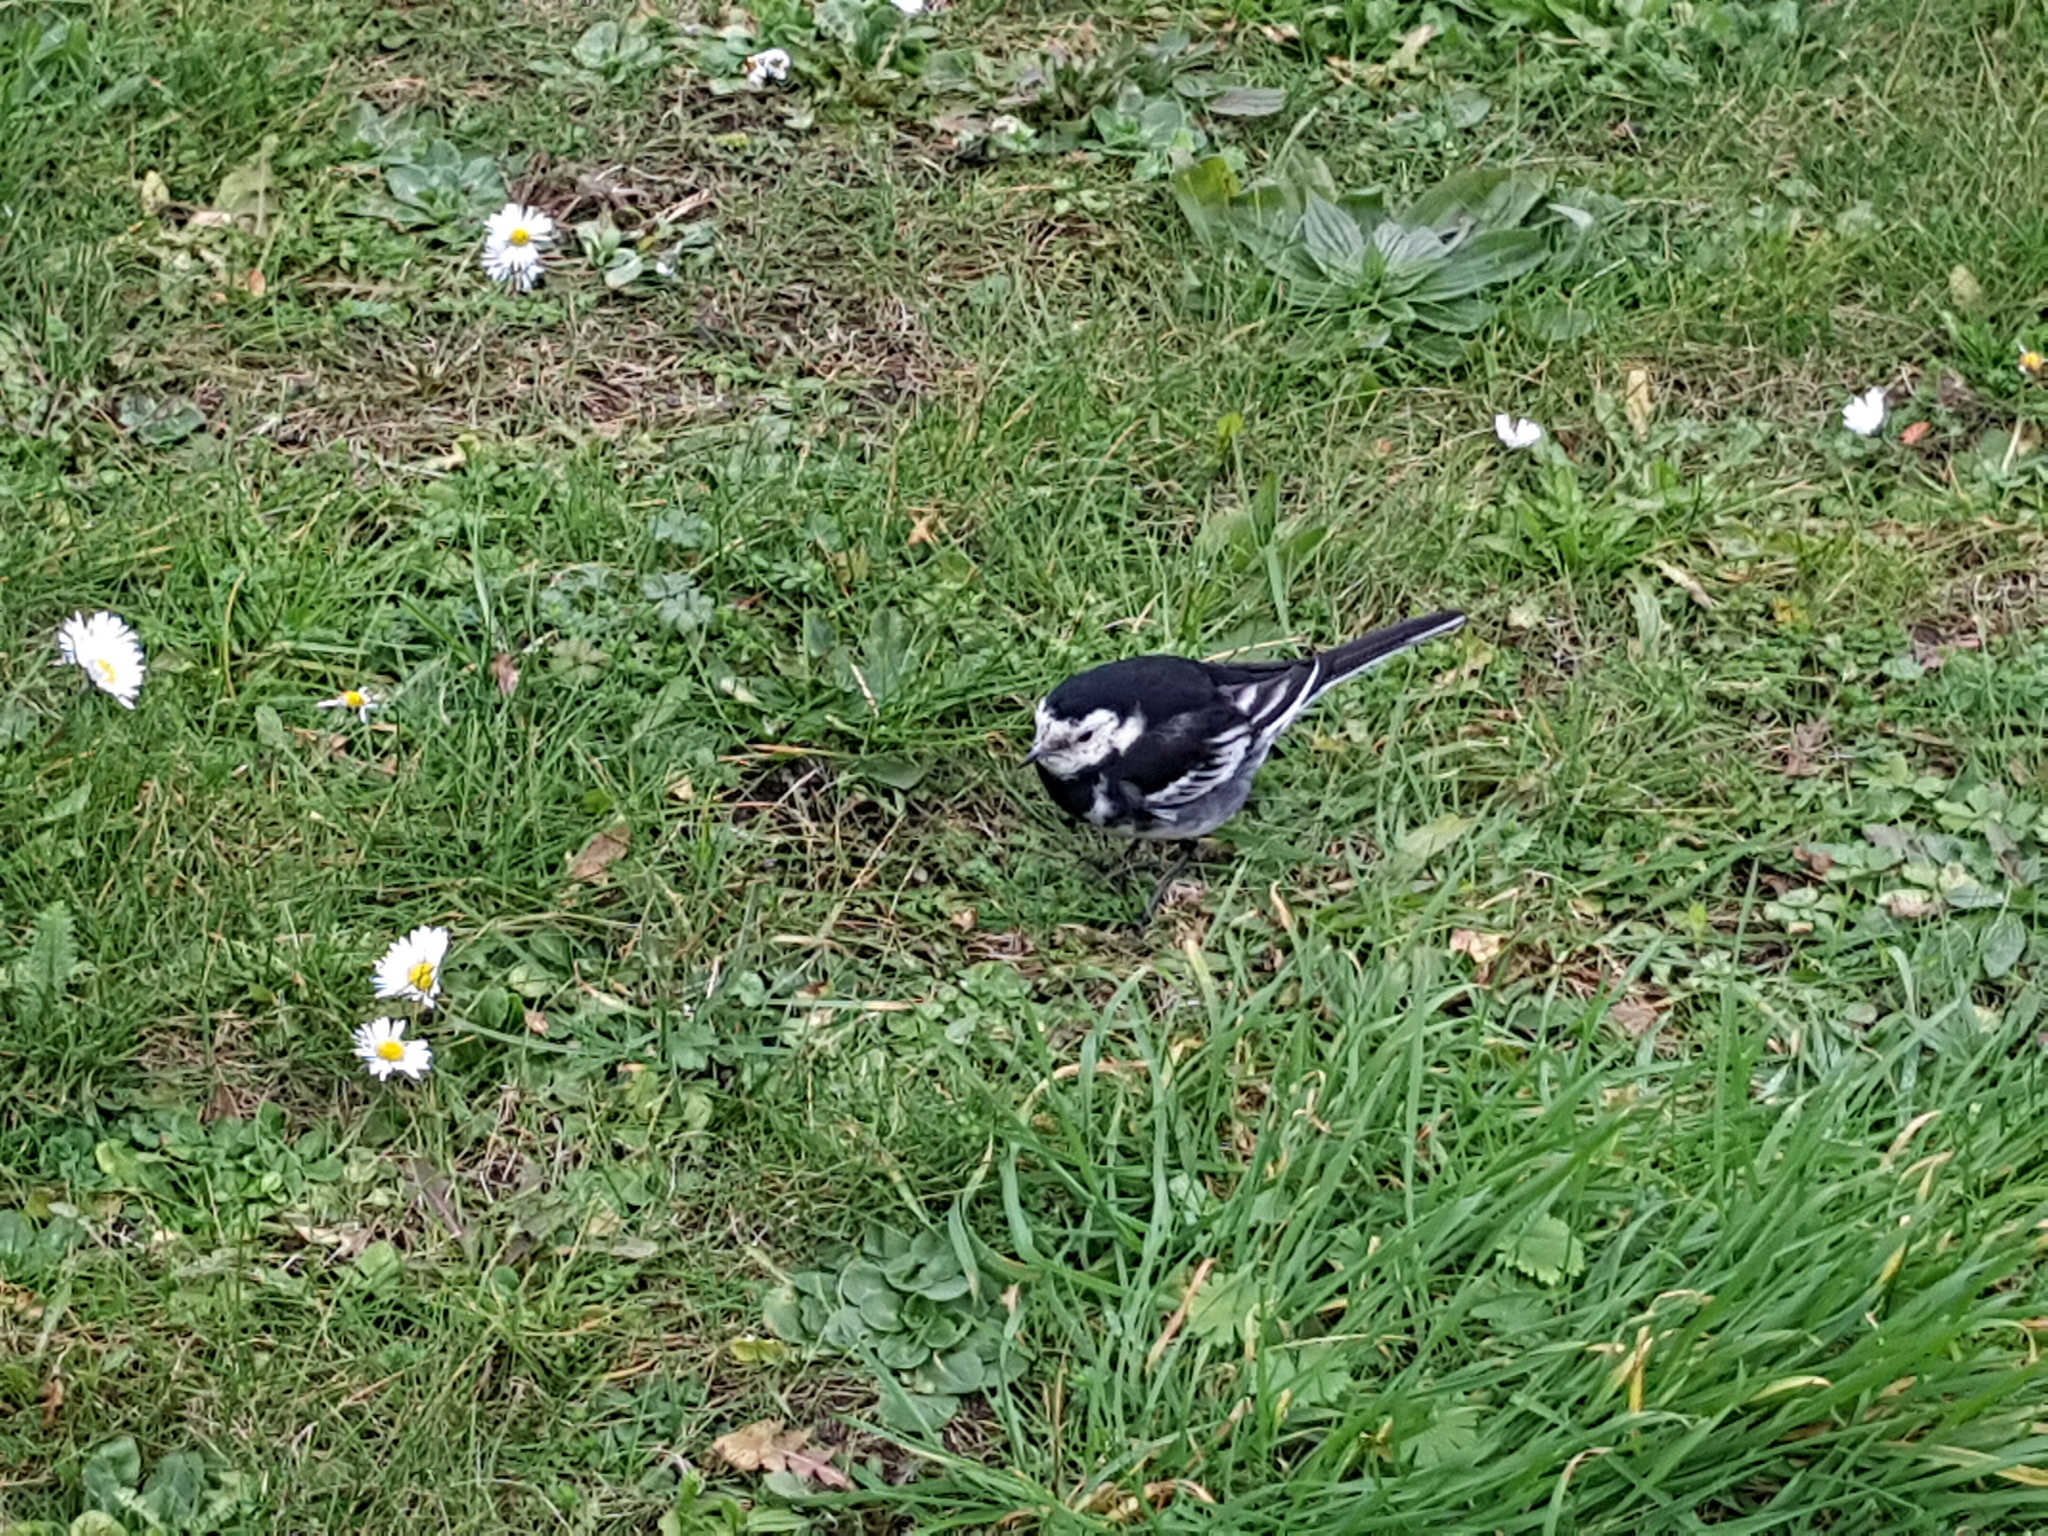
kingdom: Animalia
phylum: Chordata
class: Aves
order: Passeriformes
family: Motacillidae
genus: Motacilla
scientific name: Motacilla alba
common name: White wagtail
